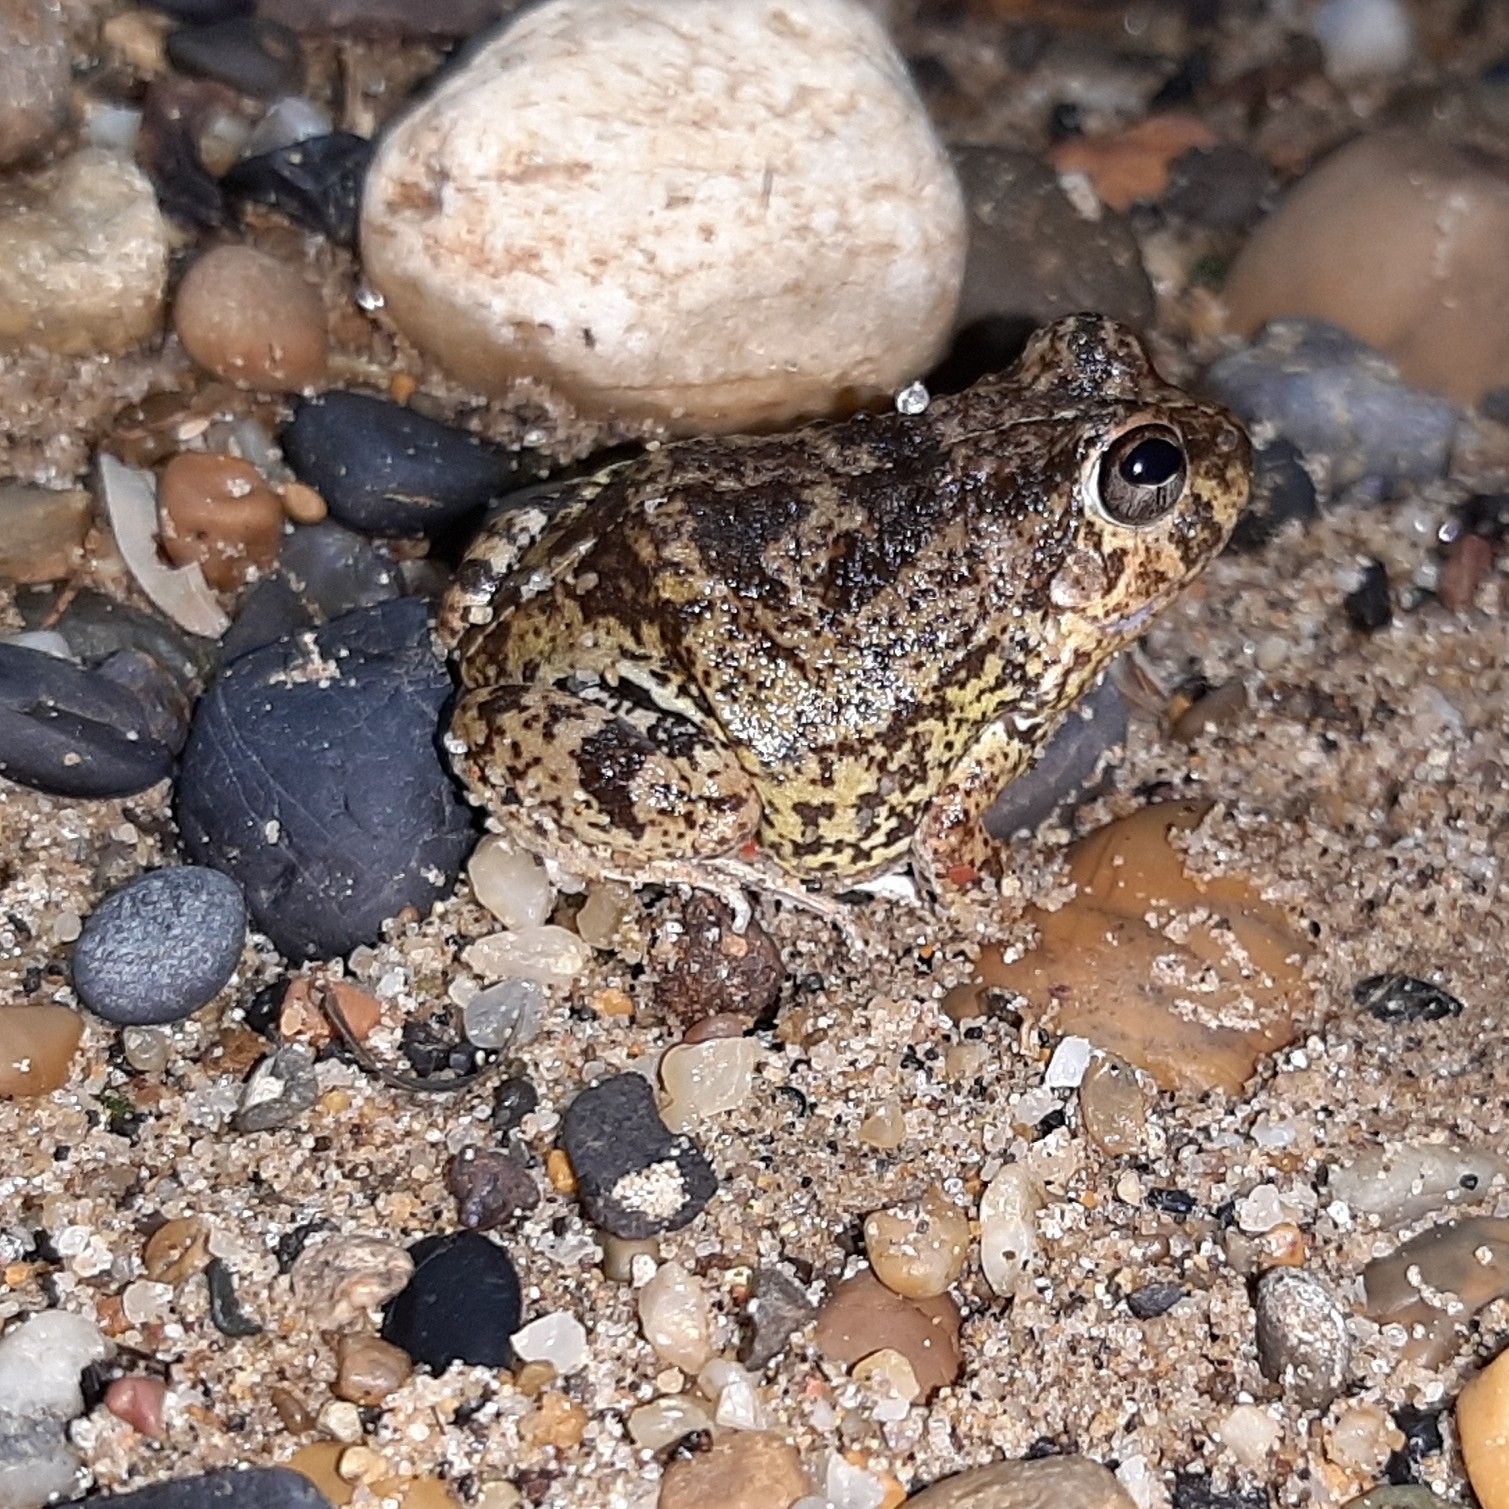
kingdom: Animalia
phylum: Chordata
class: Amphibia
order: Anura
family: Leptodactylidae
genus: Pleurodema
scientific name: Pleurodema brachyops
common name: Colombian four-eyed frog
